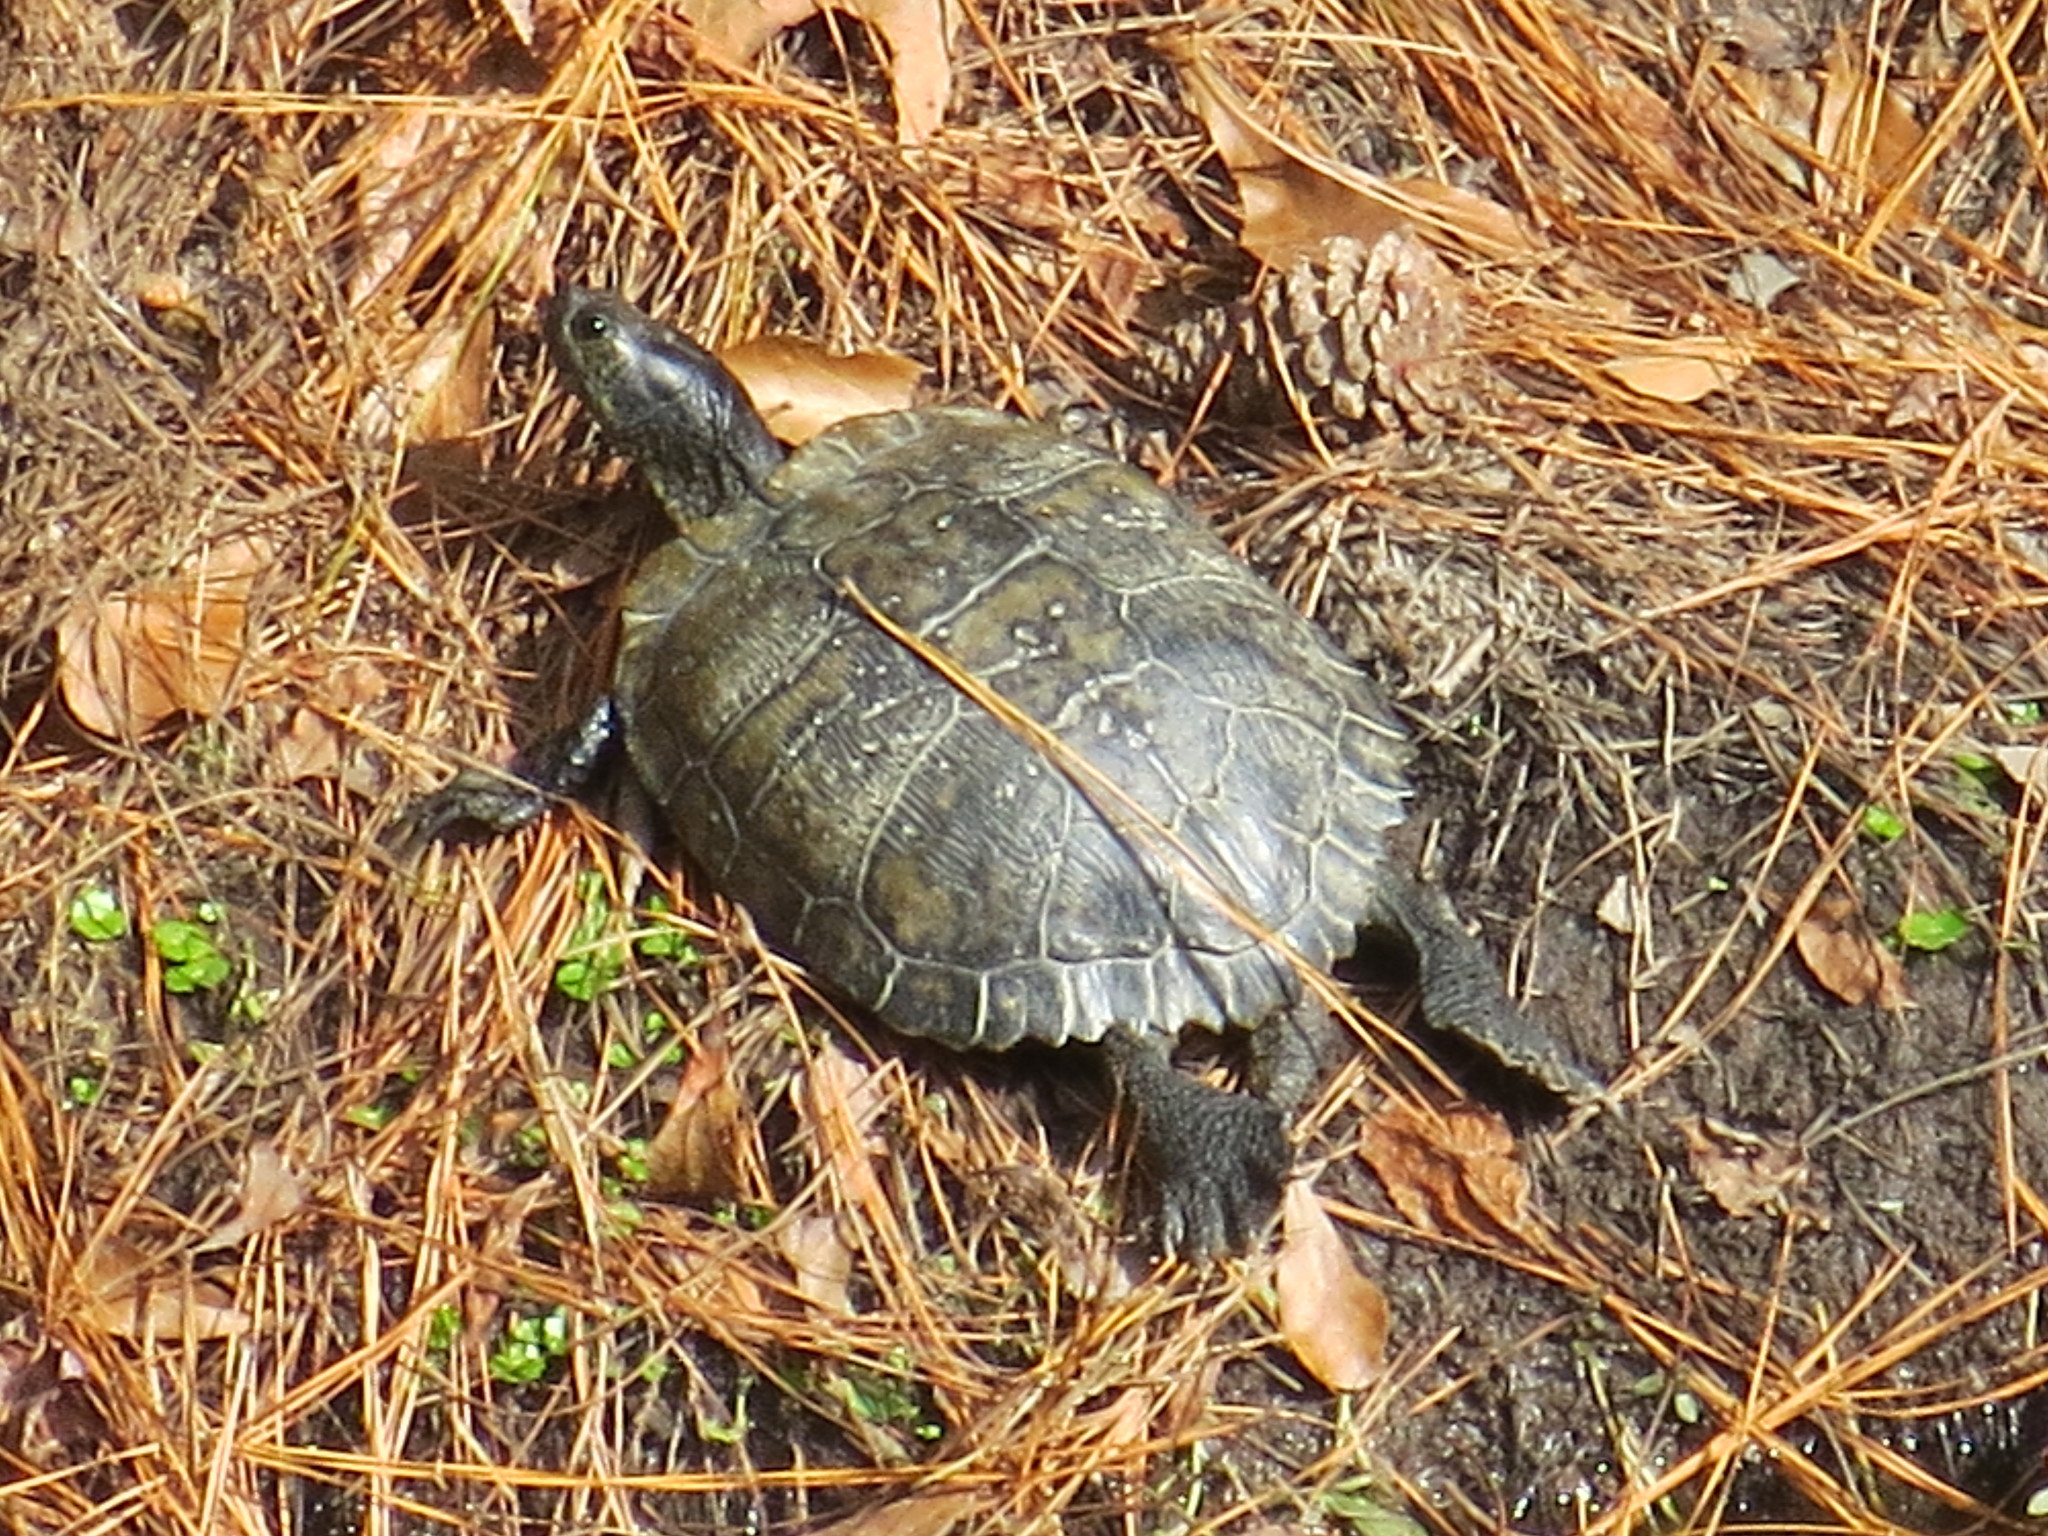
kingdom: Animalia
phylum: Chordata
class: Testudines
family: Emydidae
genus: Trachemys
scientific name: Trachemys scripta
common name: Slider
